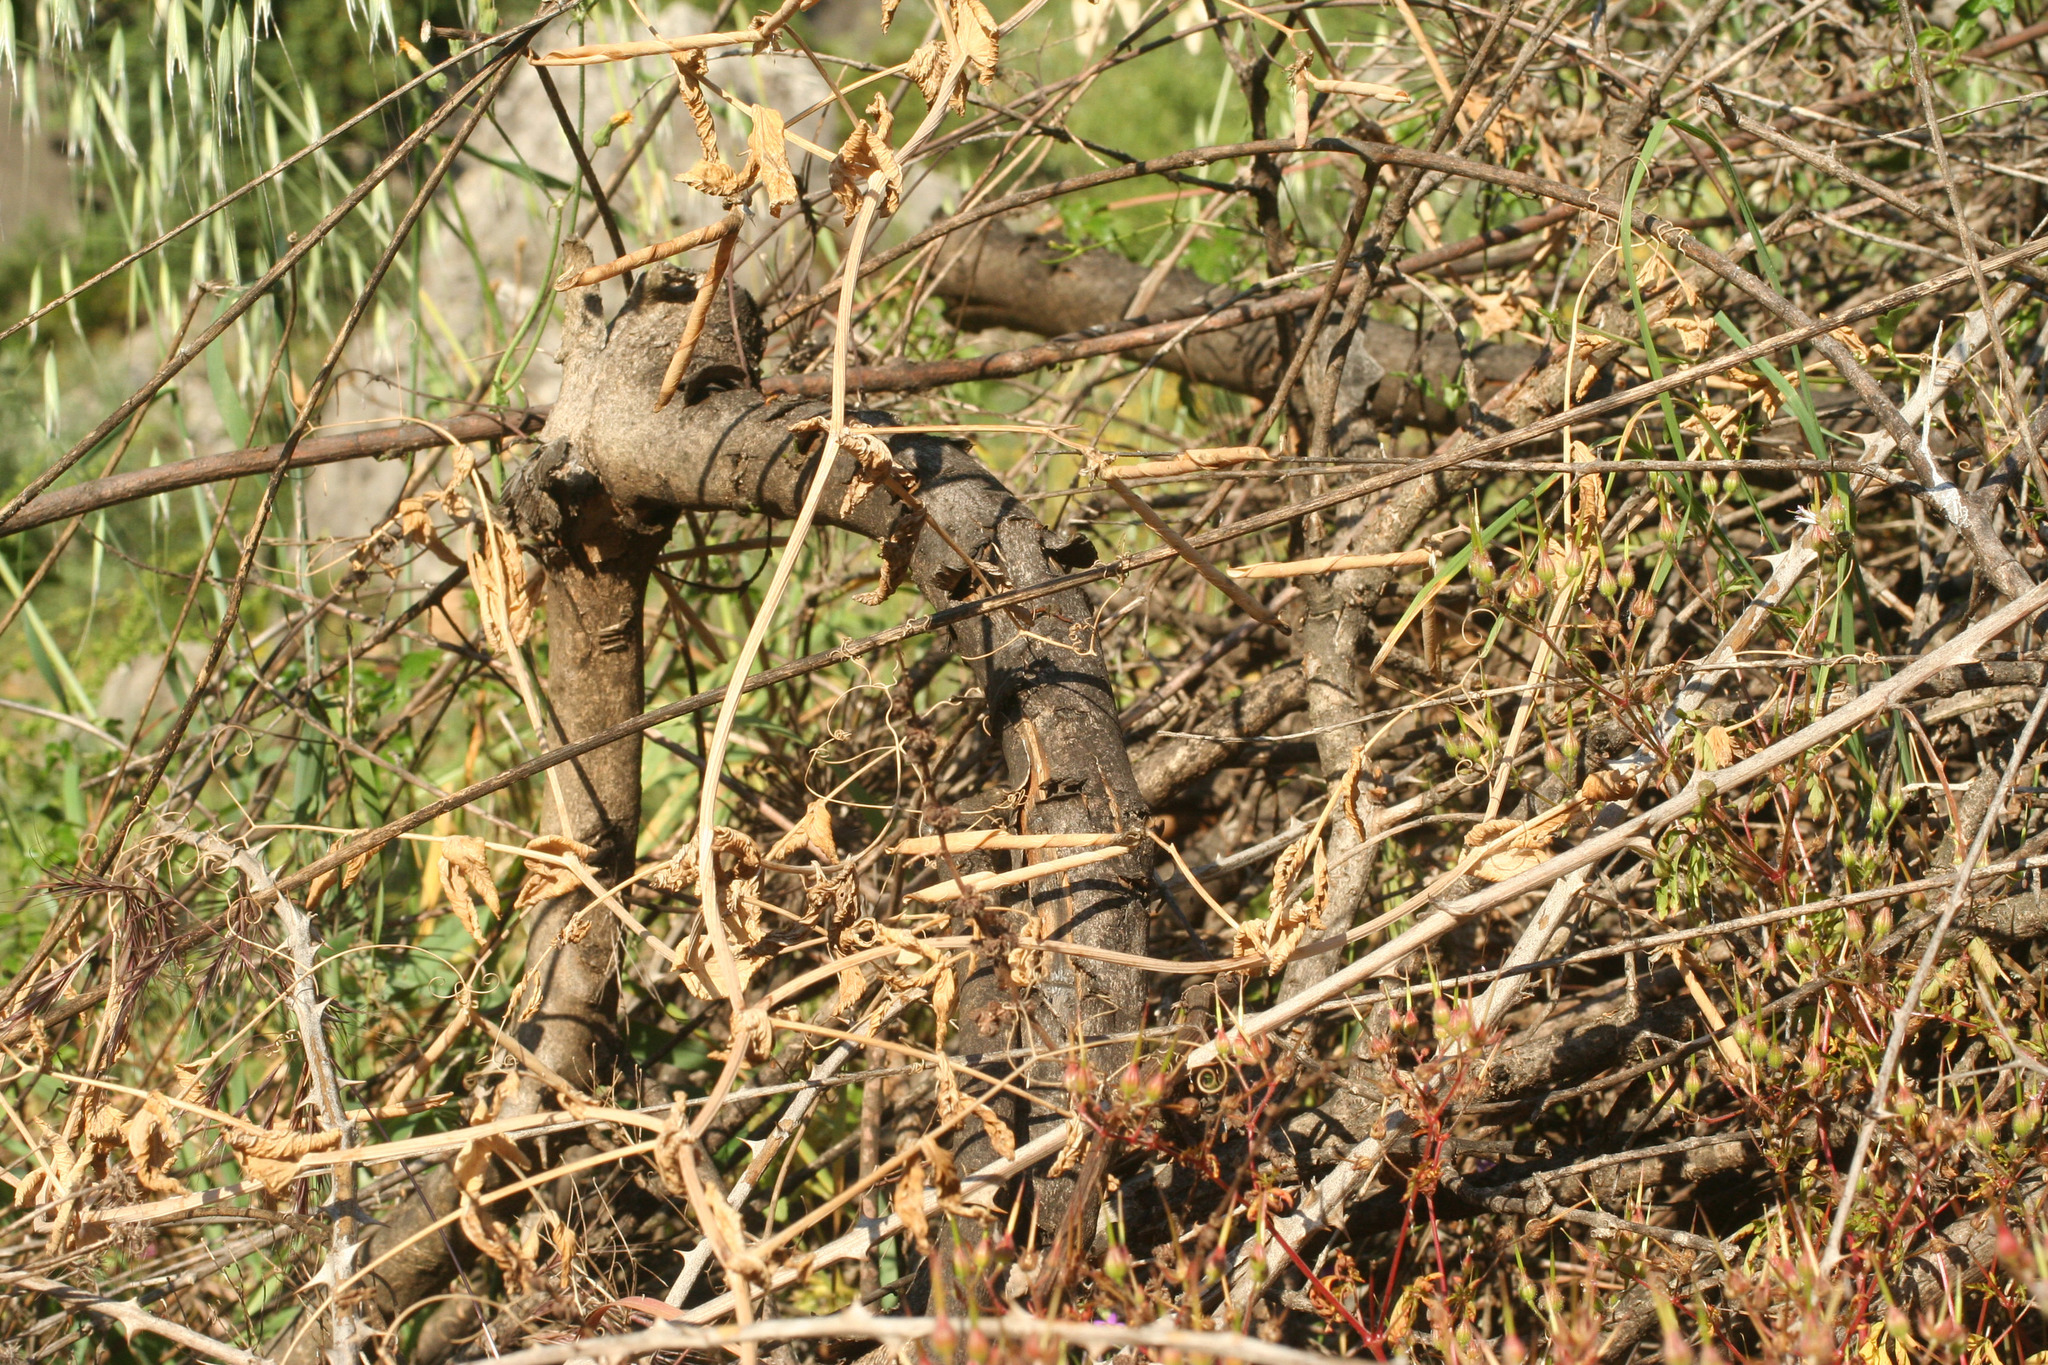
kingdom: Plantae
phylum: Tracheophyta
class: Magnoliopsida
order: Fabales
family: Fabaceae
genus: Lathyrus
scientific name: Lathyrus oleraceus
